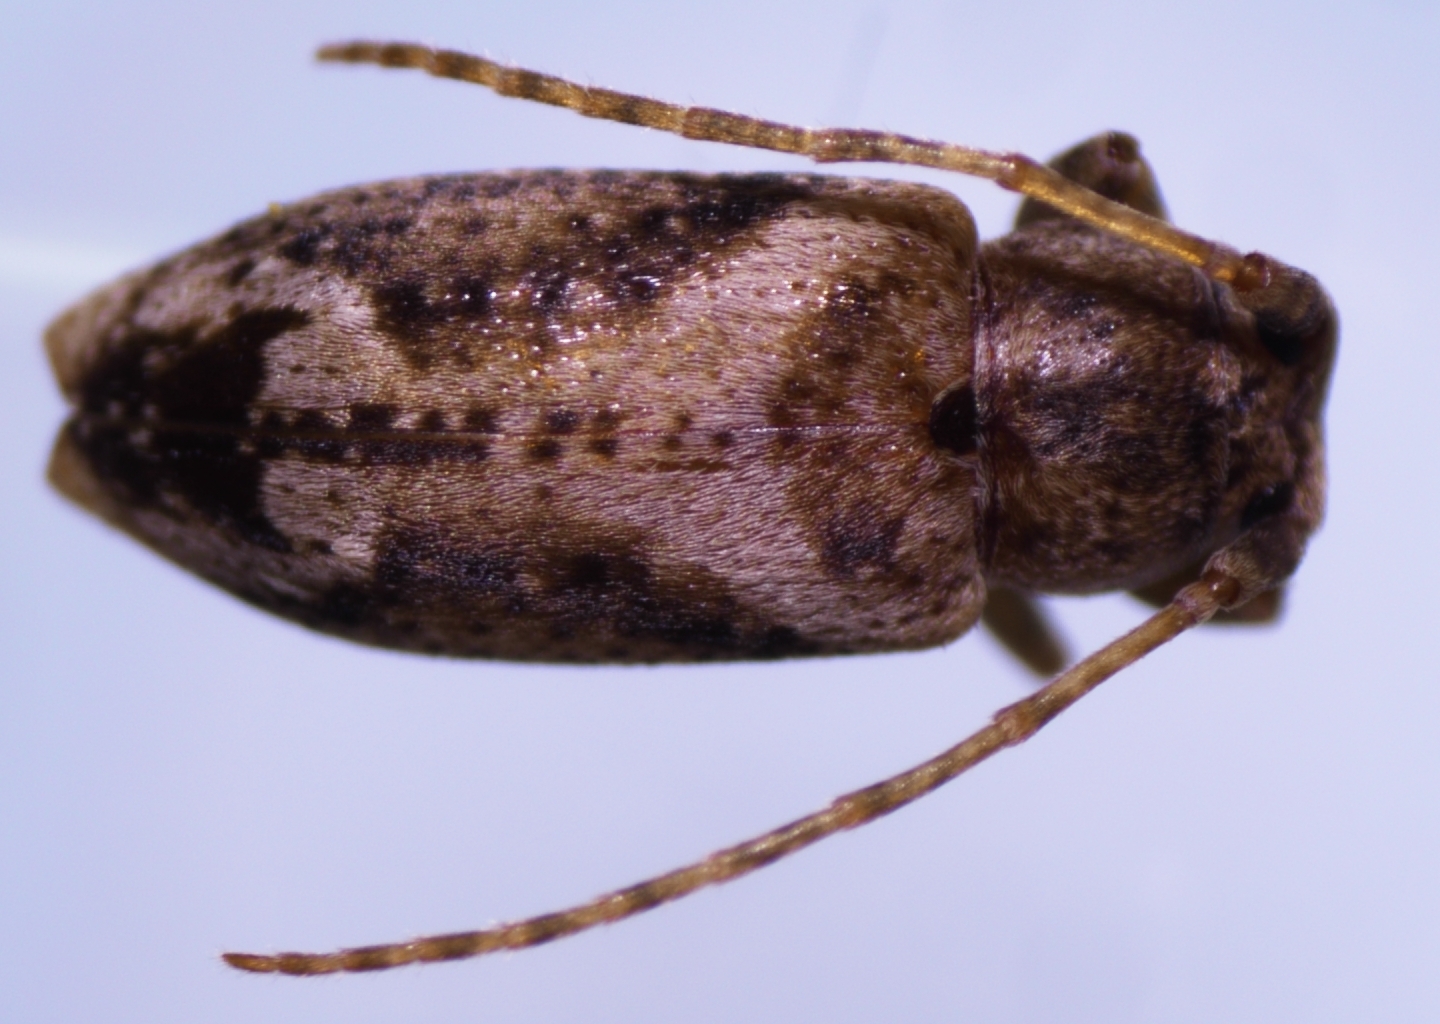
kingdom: Animalia
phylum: Arthropoda
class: Insecta
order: Coleoptera
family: Cerambycidae
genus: Pterolophia
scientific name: Pterolophia lateripicta
